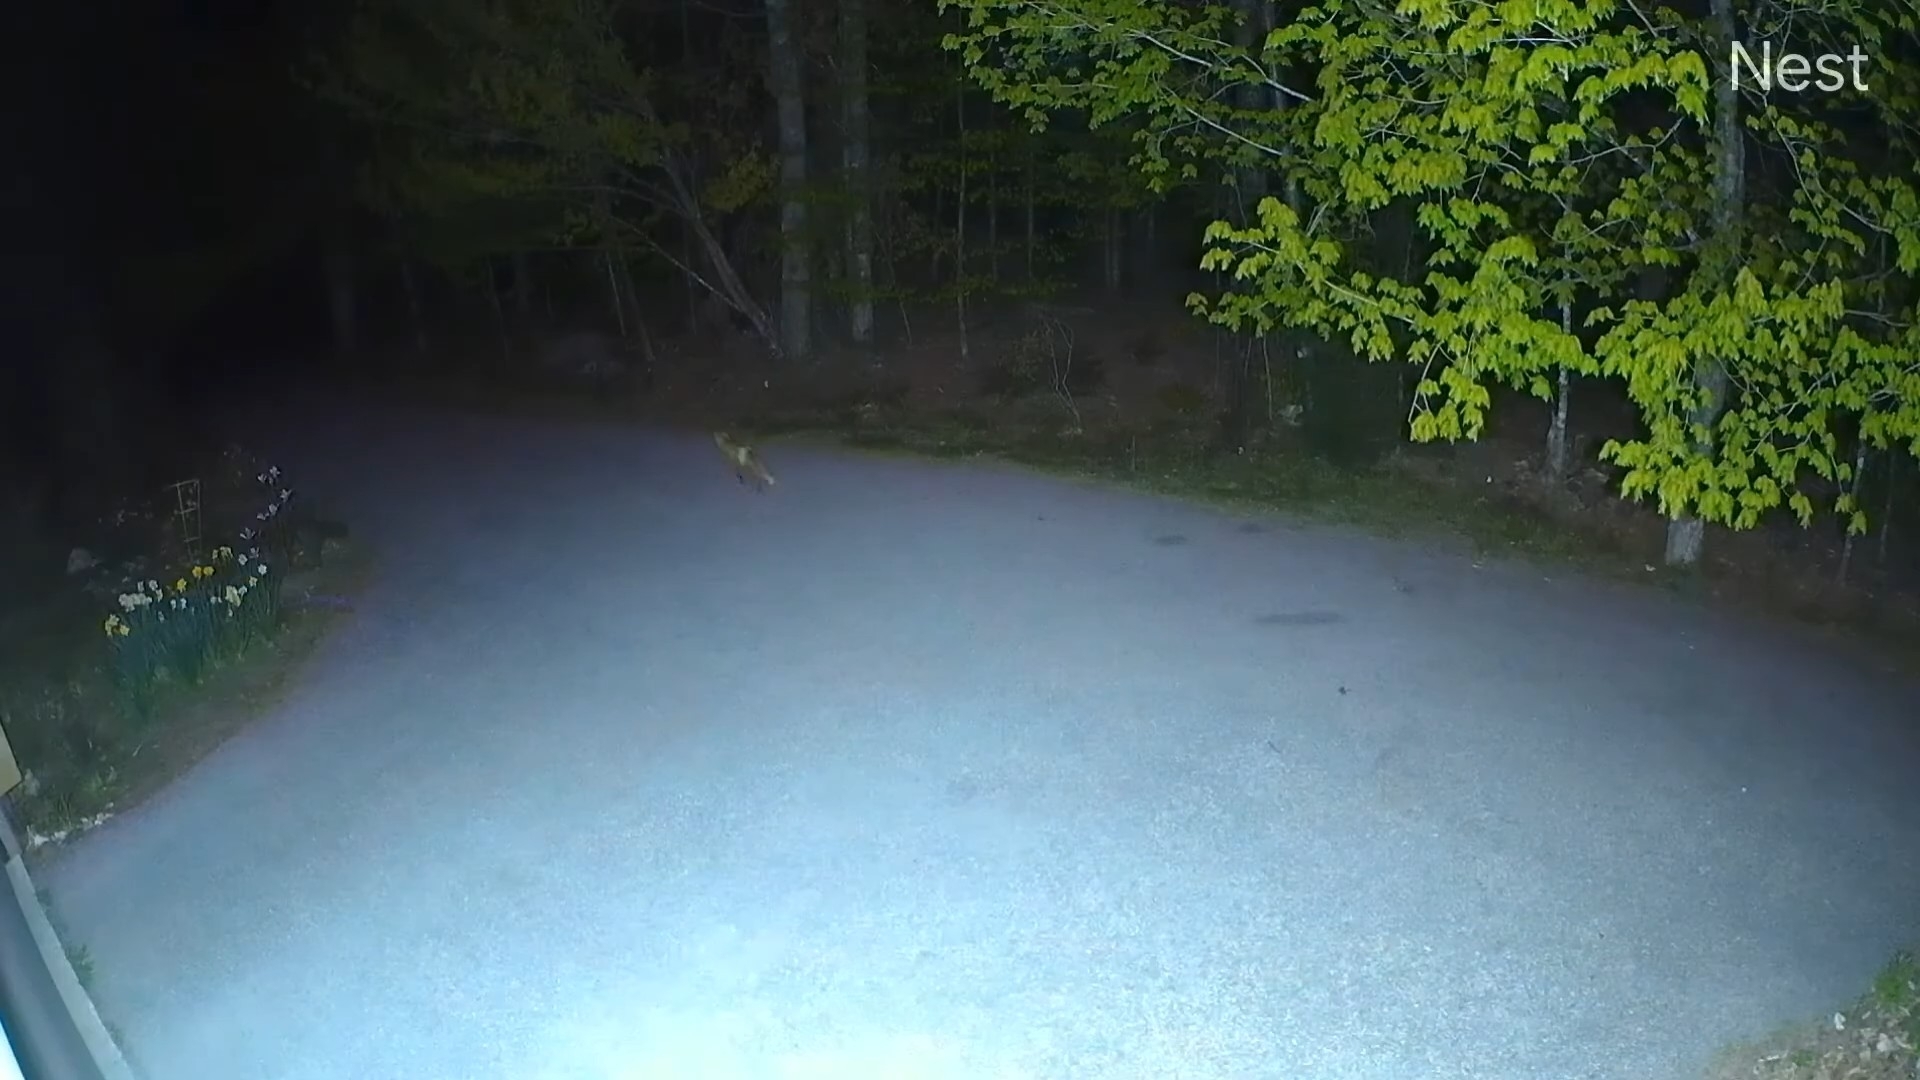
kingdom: Animalia
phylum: Chordata
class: Mammalia
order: Carnivora
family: Canidae
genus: Vulpes
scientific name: Vulpes vulpes
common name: Red fox
